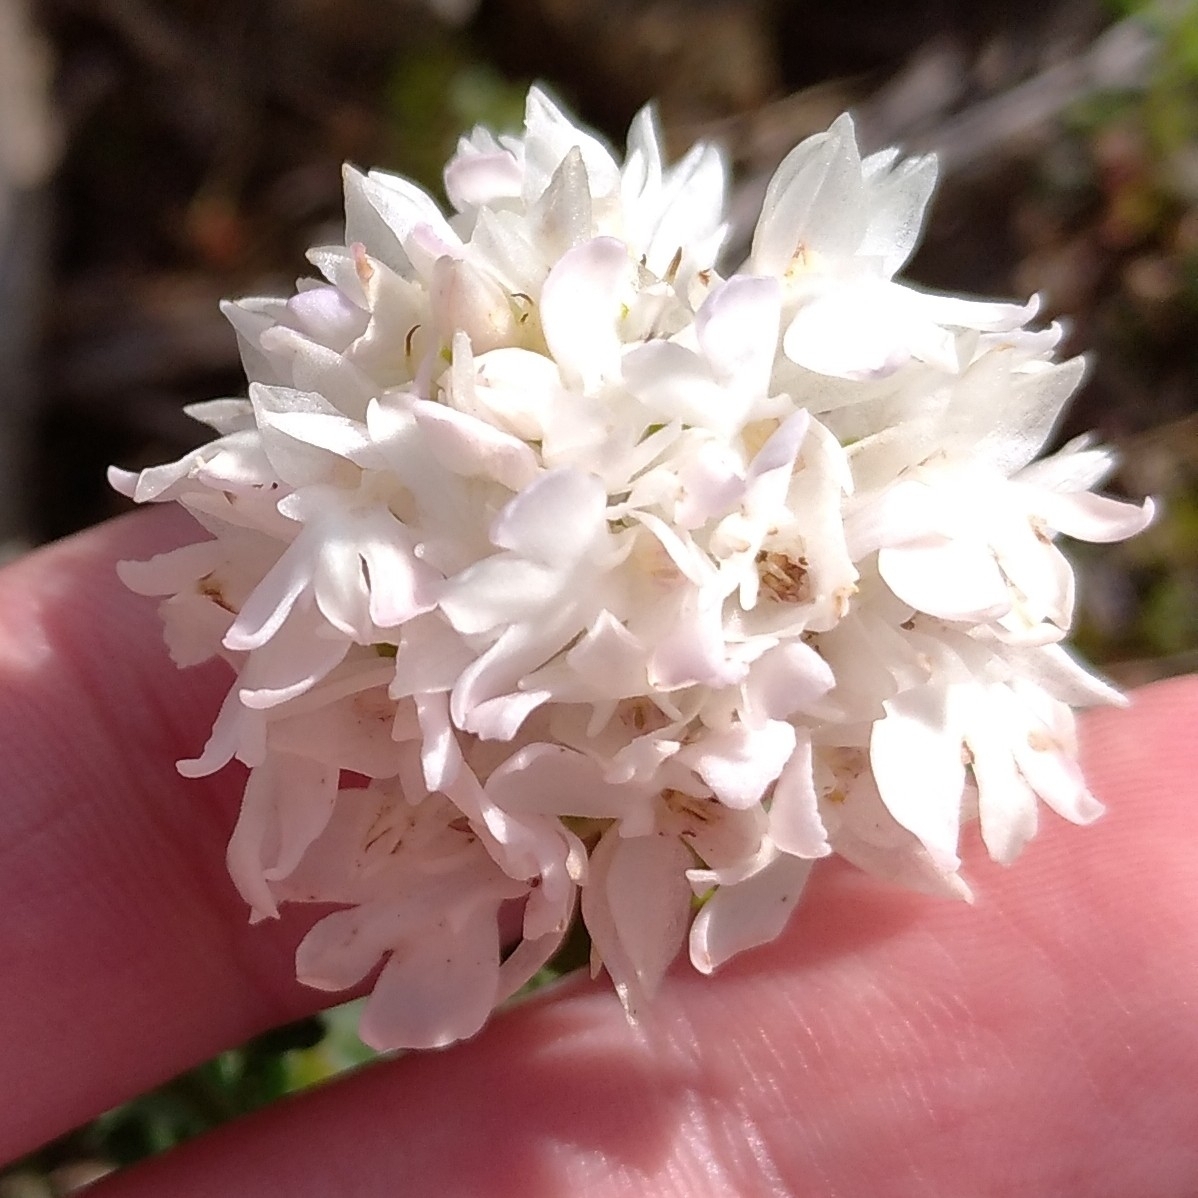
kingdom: Plantae
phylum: Tracheophyta
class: Liliopsida
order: Asparagales
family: Orchidaceae
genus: Anacamptis
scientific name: Anacamptis pyramidalis
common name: Pyramidal orchid
